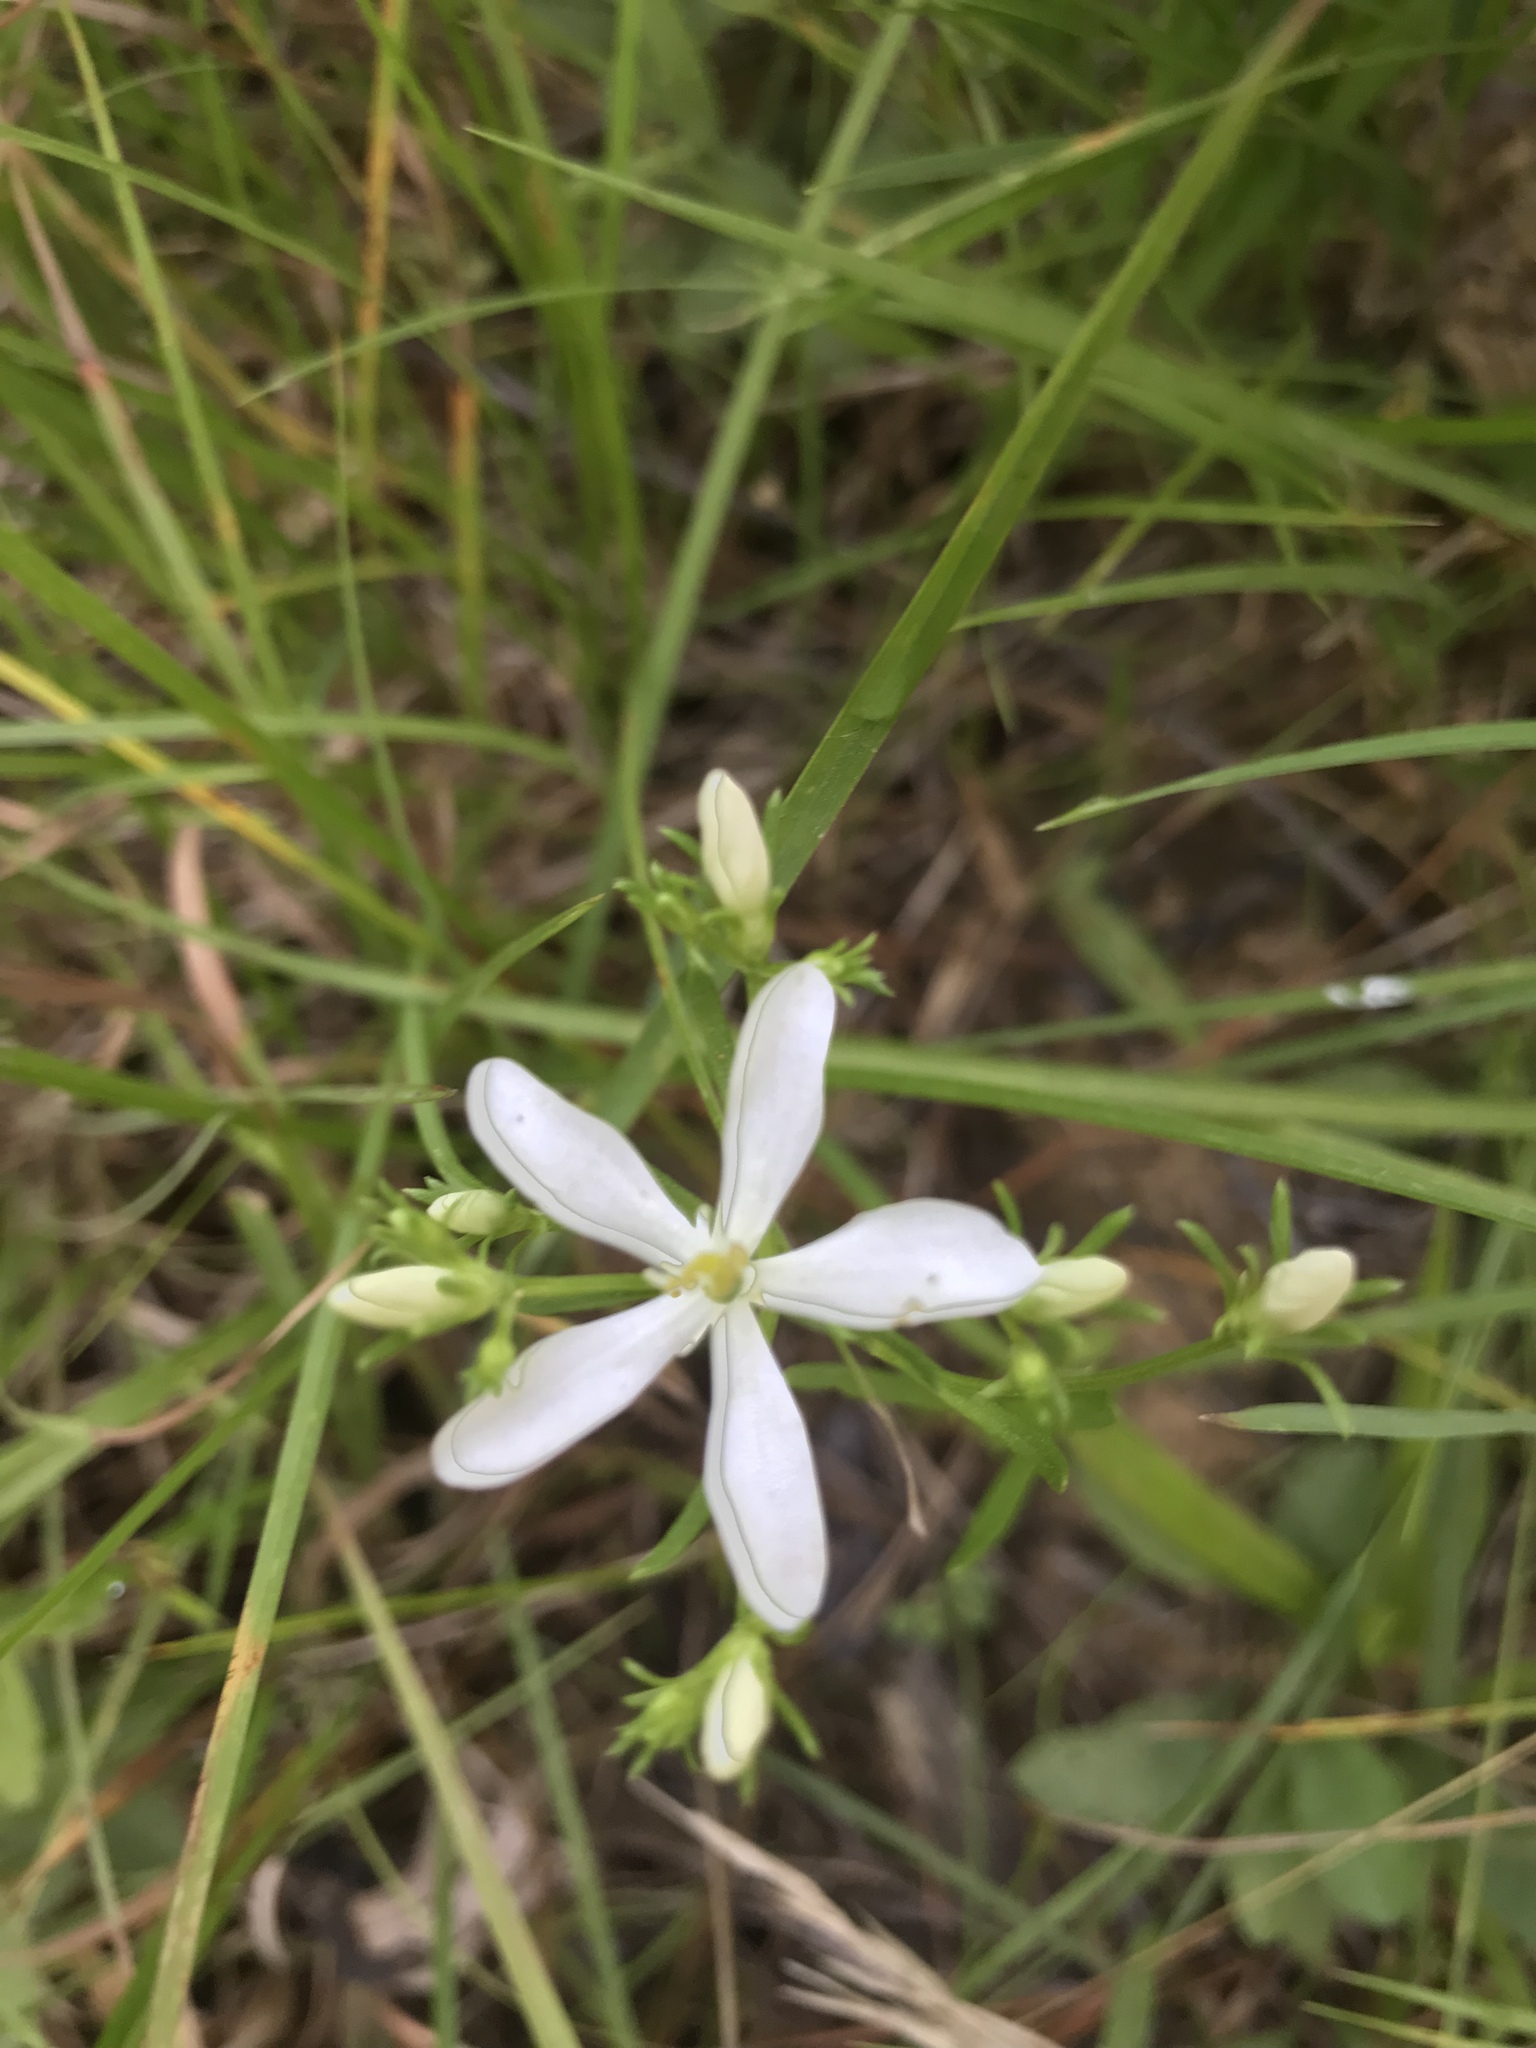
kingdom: Plantae
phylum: Tracheophyta
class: Magnoliopsida
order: Gentianales
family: Gentianaceae
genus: Sabatia
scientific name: Sabatia quadrangula
